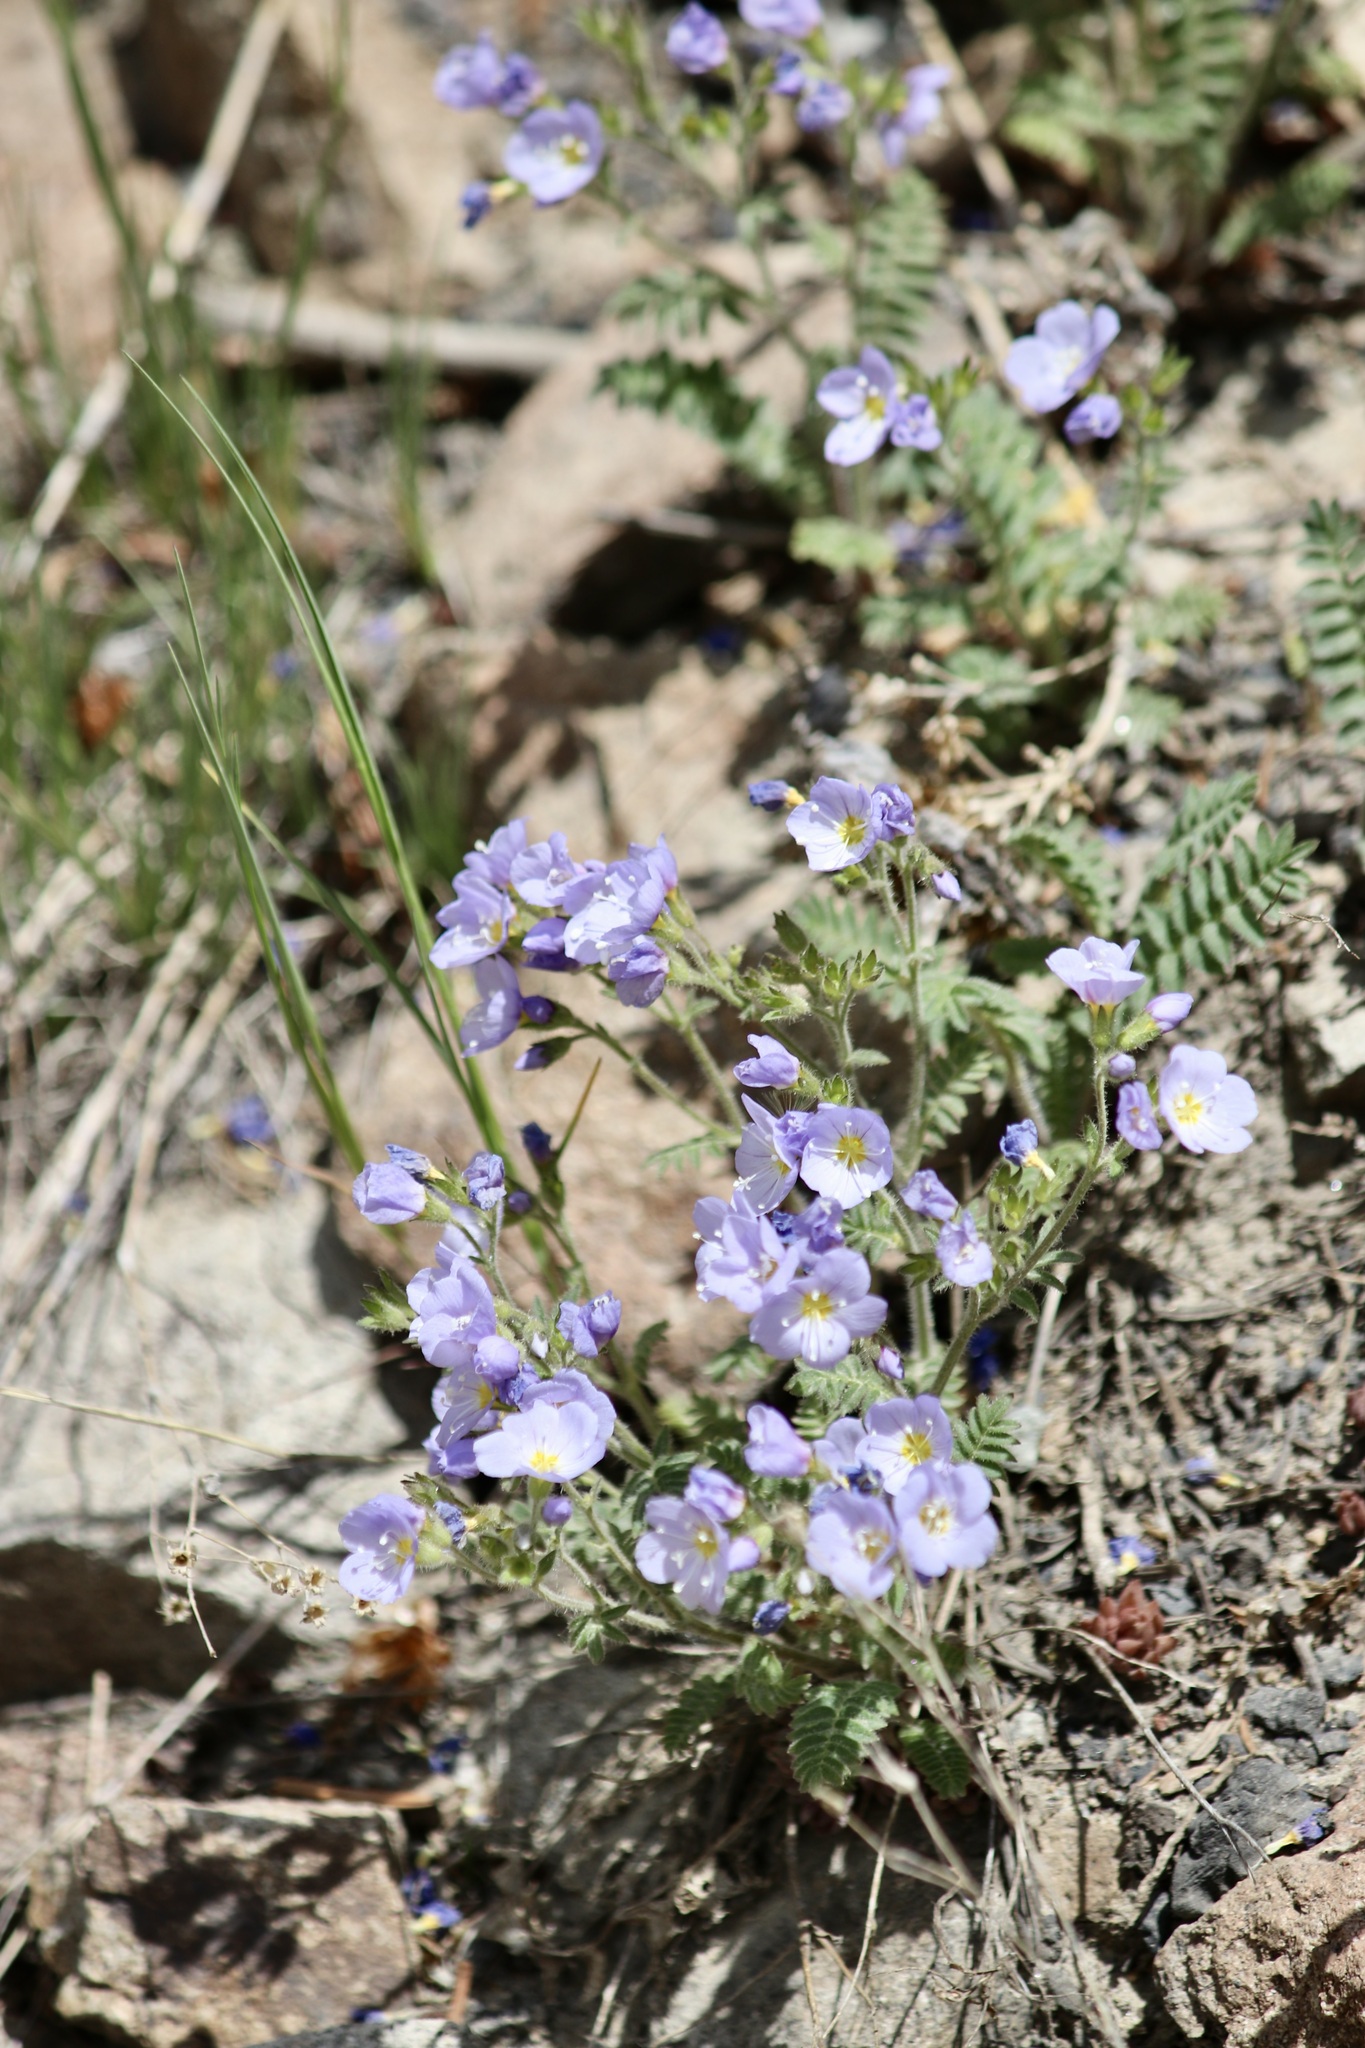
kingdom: Plantae
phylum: Tracheophyta
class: Magnoliopsida
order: Ericales
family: Polemoniaceae
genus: Polemonium
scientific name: Polemonium pulcherrimum
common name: Short jacob's-ladder
